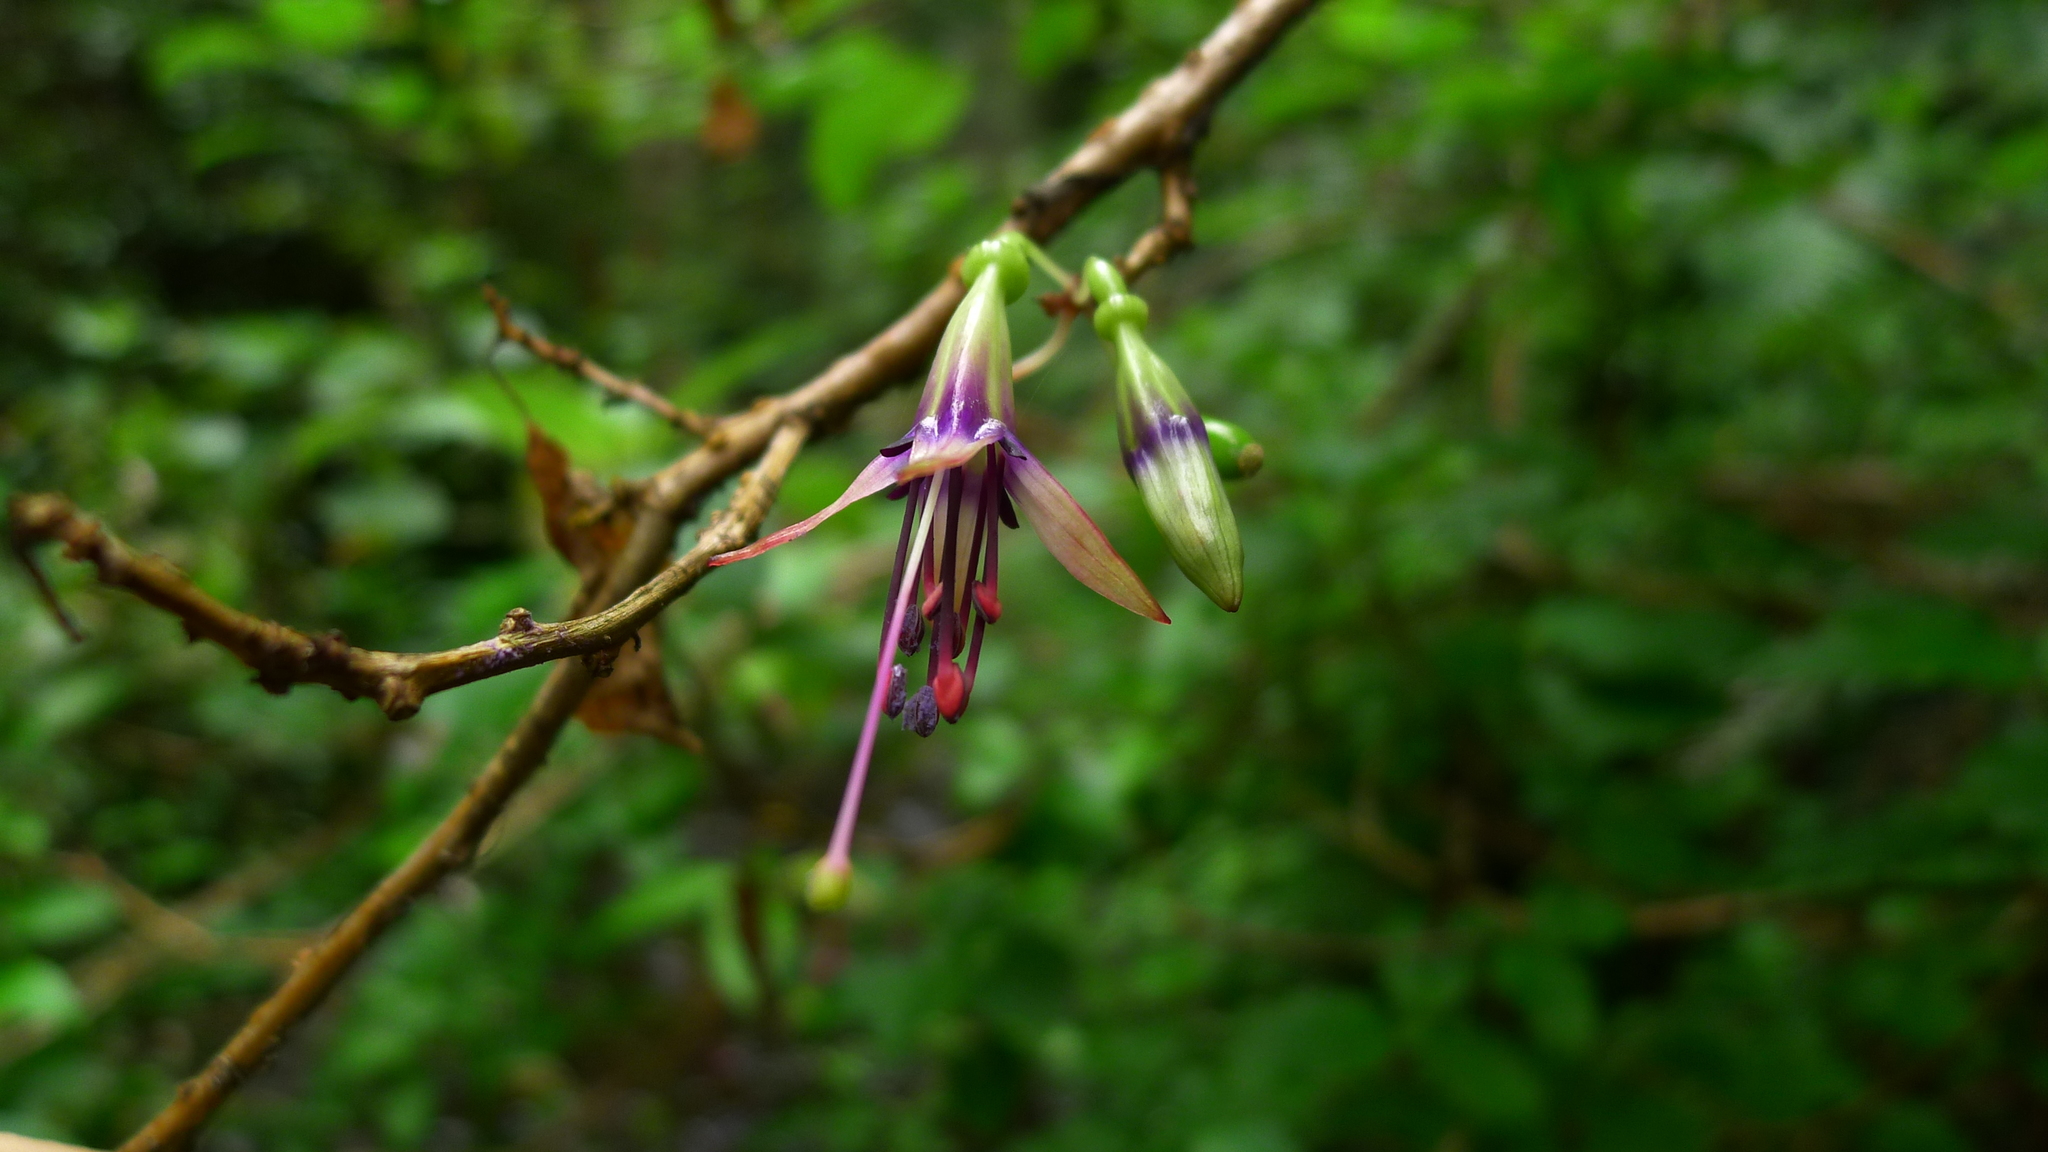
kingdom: Plantae
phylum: Tracheophyta
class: Magnoliopsida
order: Myrtales
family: Onagraceae
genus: Fuchsia
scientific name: Fuchsia excorticata
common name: Tree fuchsia
